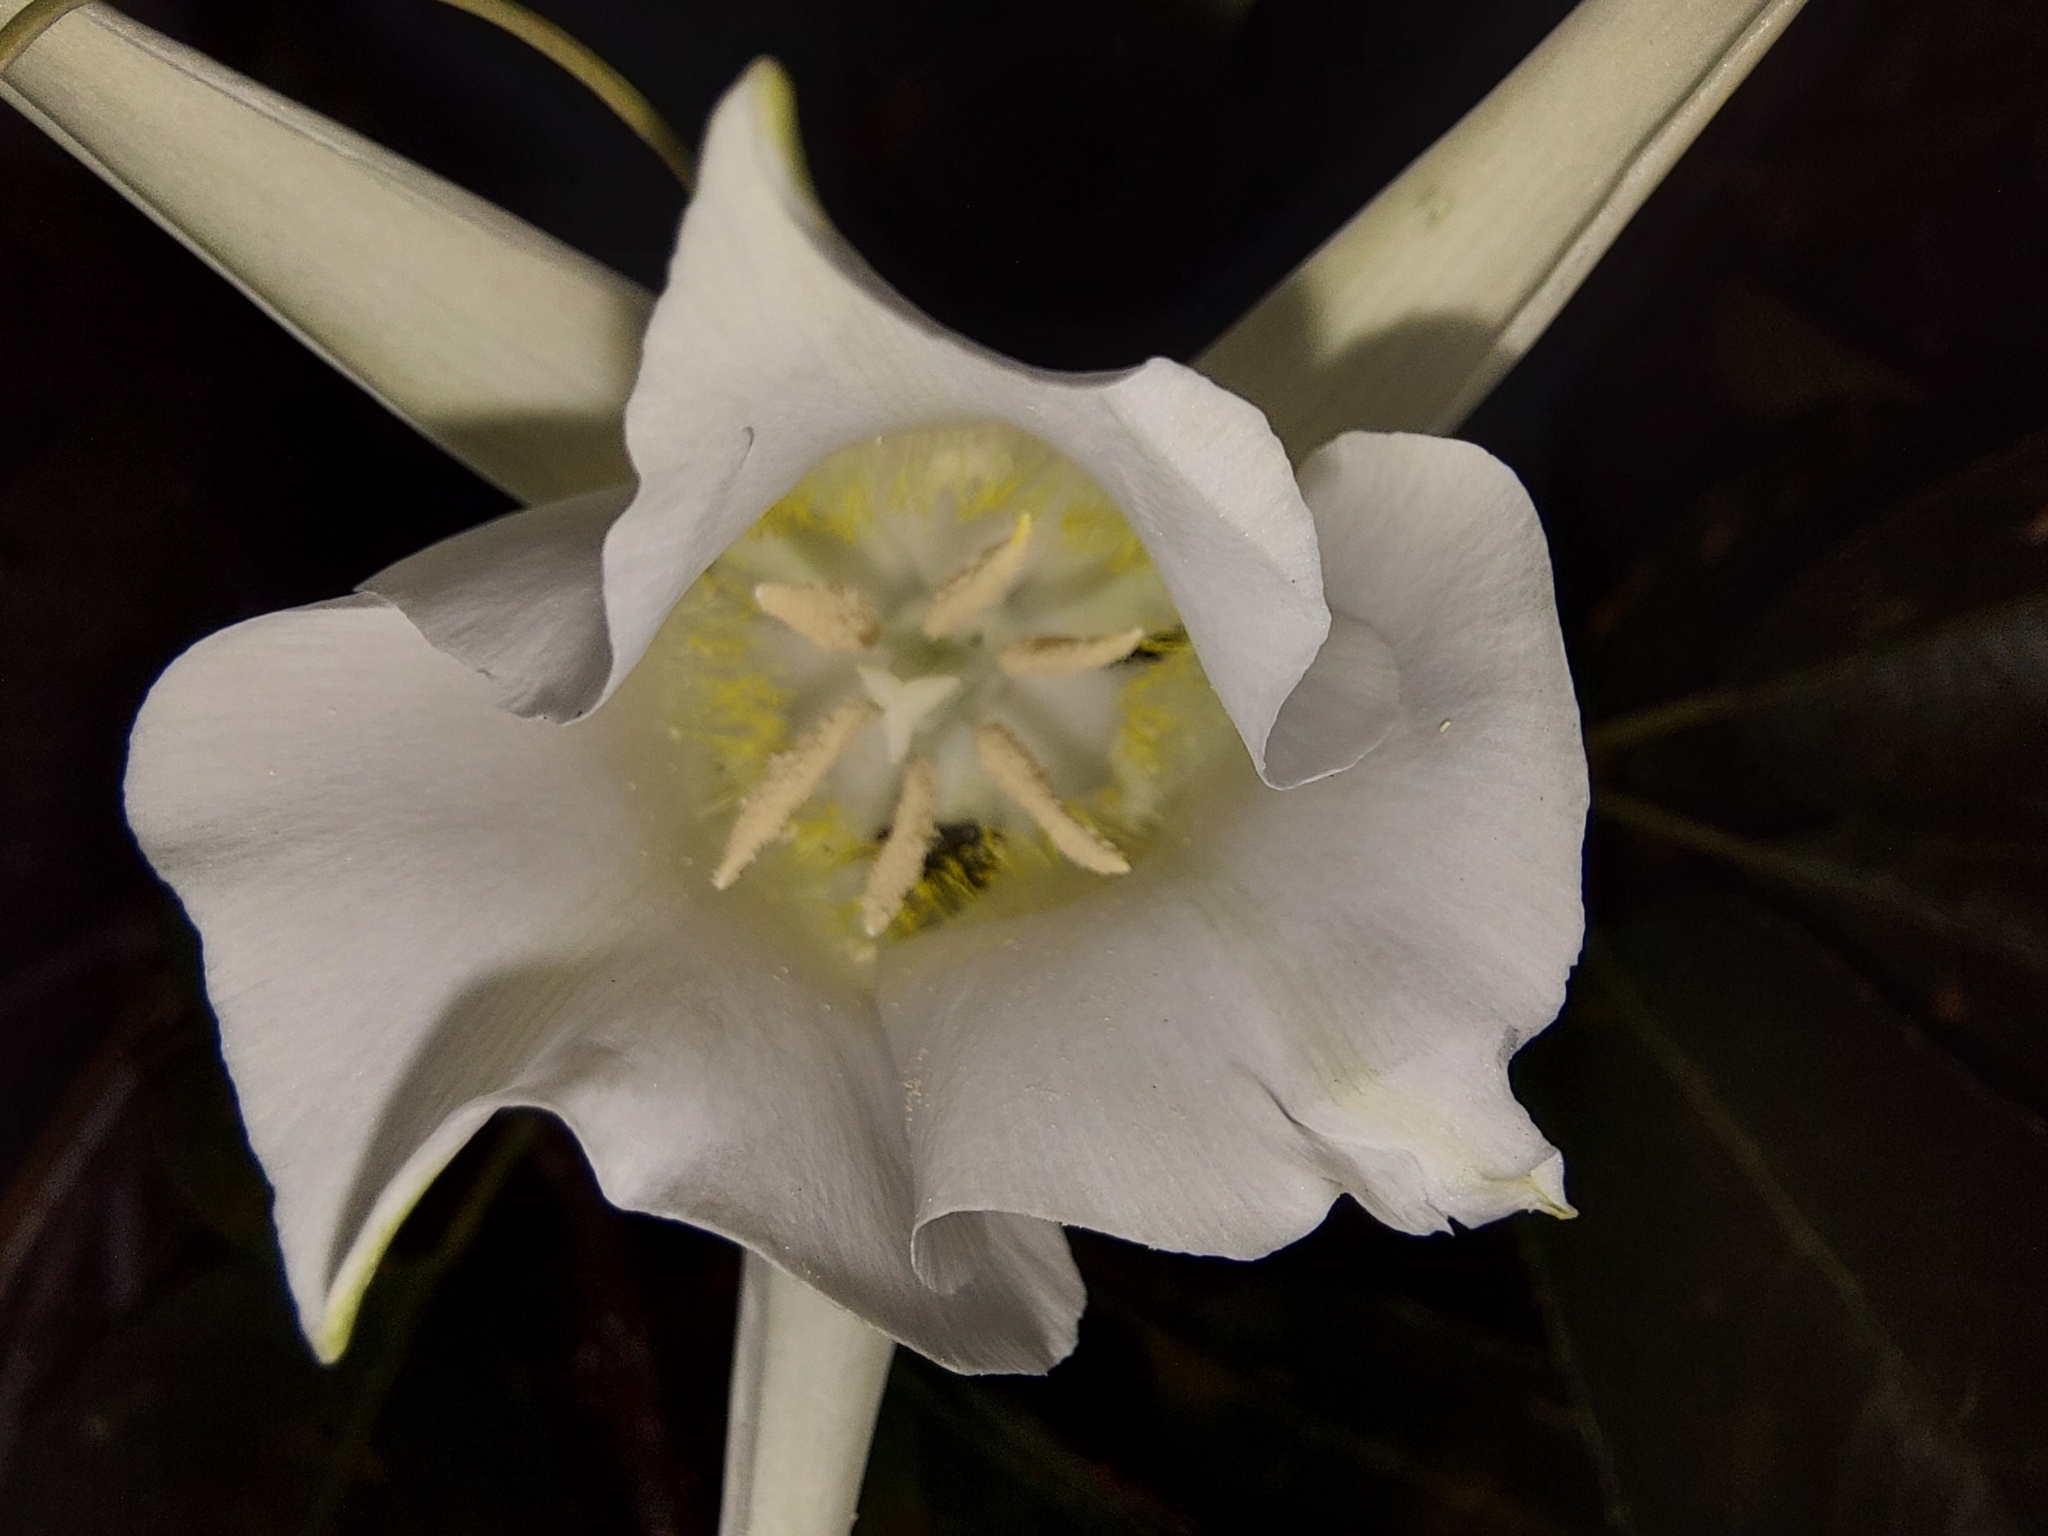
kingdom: Plantae
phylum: Tracheophyta
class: Liliopsida
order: Liliales
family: Liliaceae
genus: Calochortus
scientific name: Calochortus macrocarpus
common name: Green-band mariposa lily
